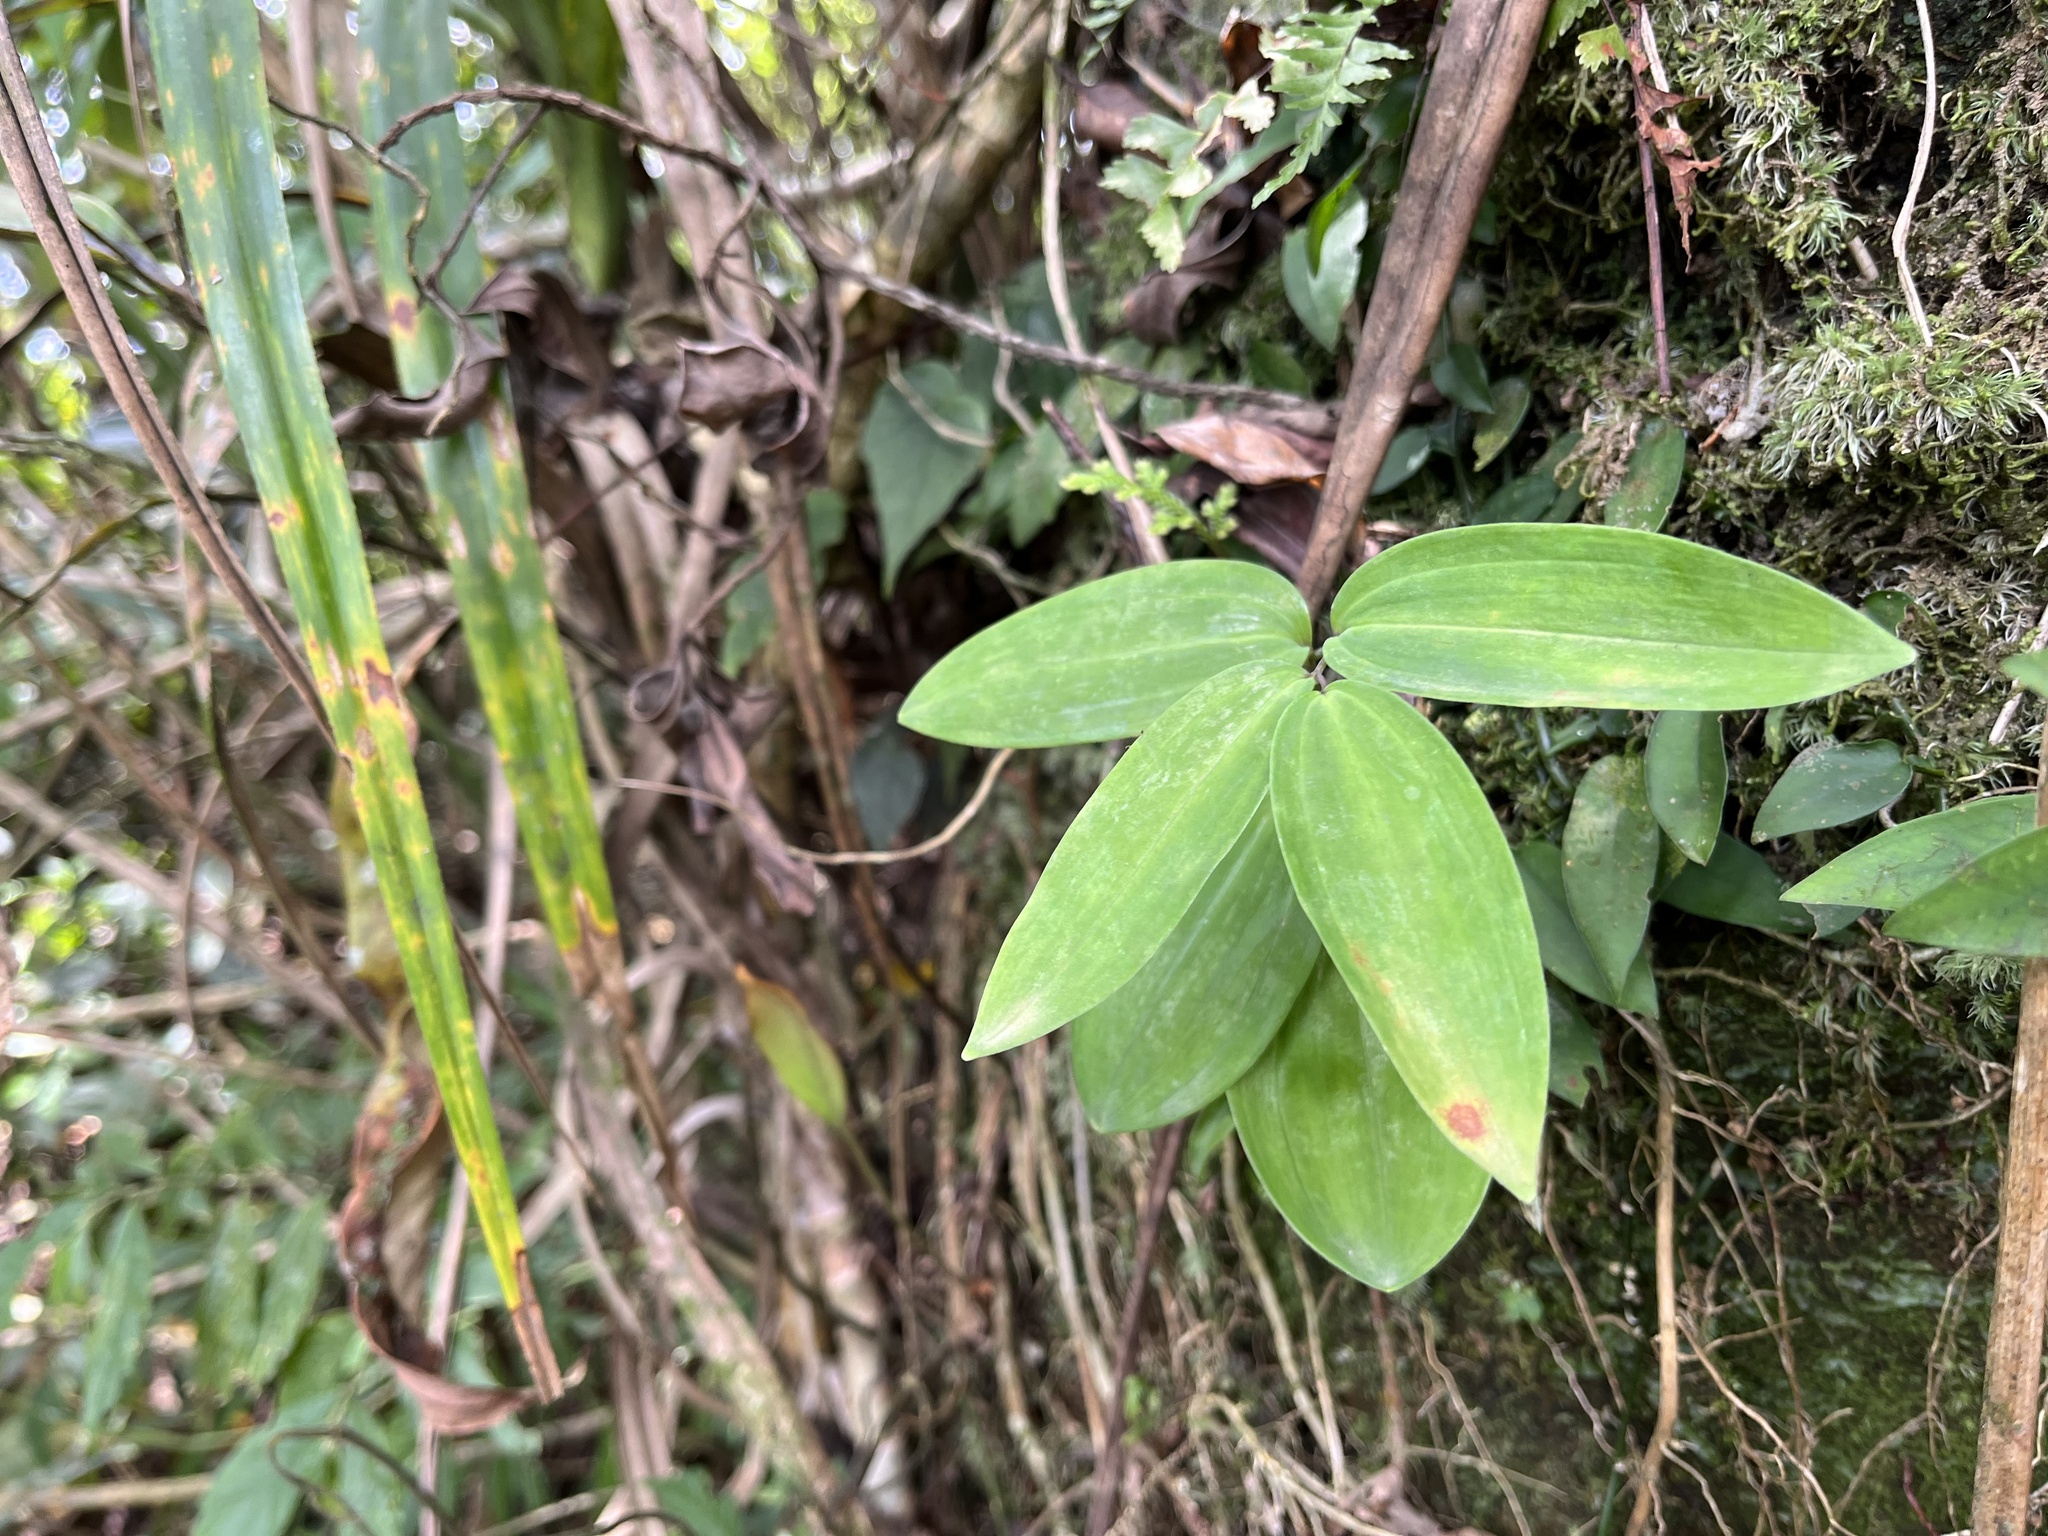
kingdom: Plantae
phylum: Tracheophyta
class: Liliopsida
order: Asparagales
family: Asparagaceae
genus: Polygonatum
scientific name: Polygonatum arisanense
